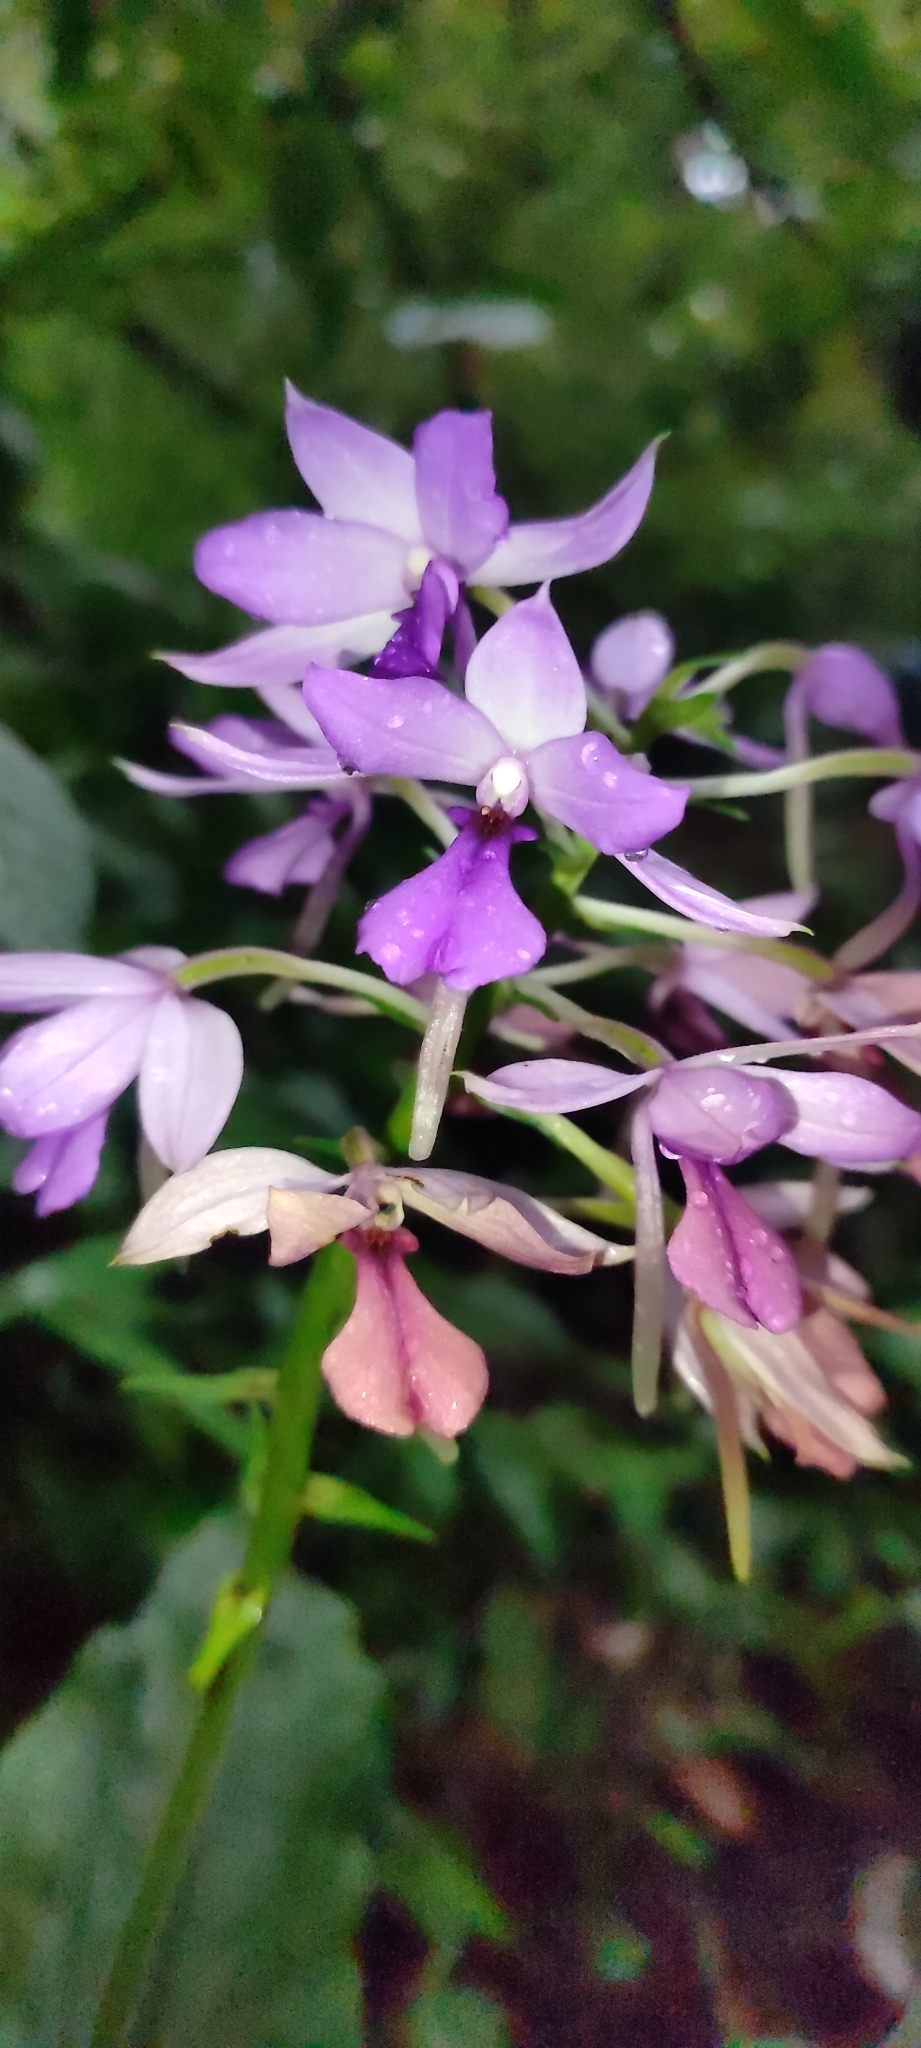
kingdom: Plantae
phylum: Tracheophyta
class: Liliopsida
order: Asparagales
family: Orchidaceae
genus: Calanthe
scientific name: Calanthe sylvatica
